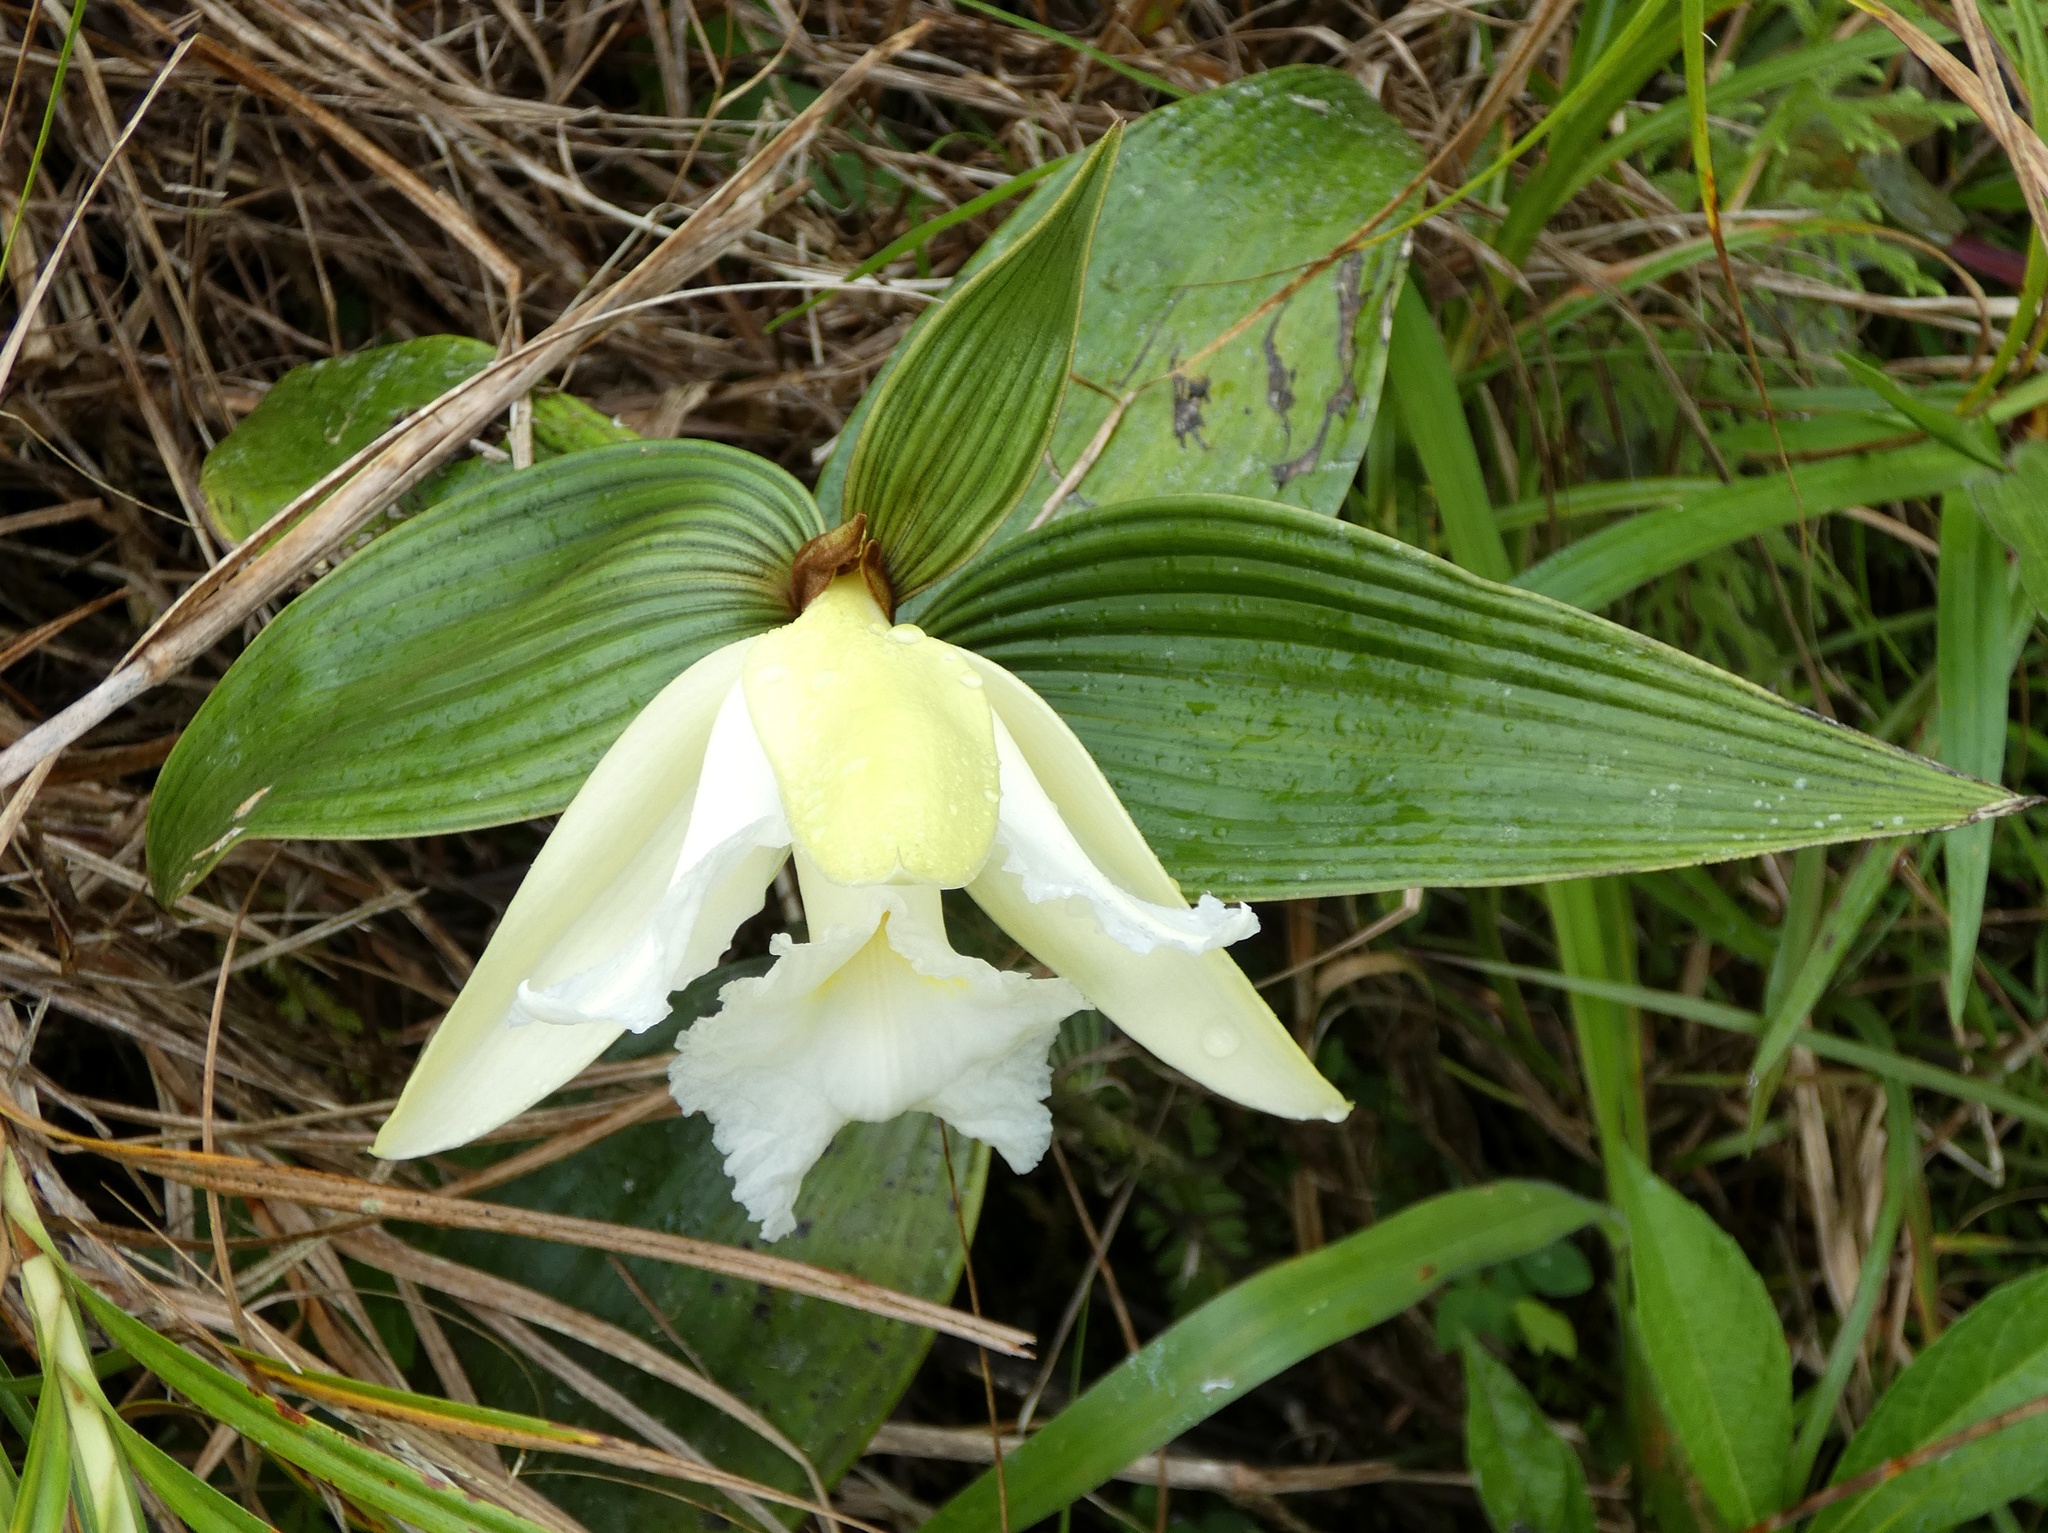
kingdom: Plantae
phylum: Tracheophyta
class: Liliopsida
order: Asparagales
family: Orchidaceae
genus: Sobralia
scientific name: Sobralia macrophylla
